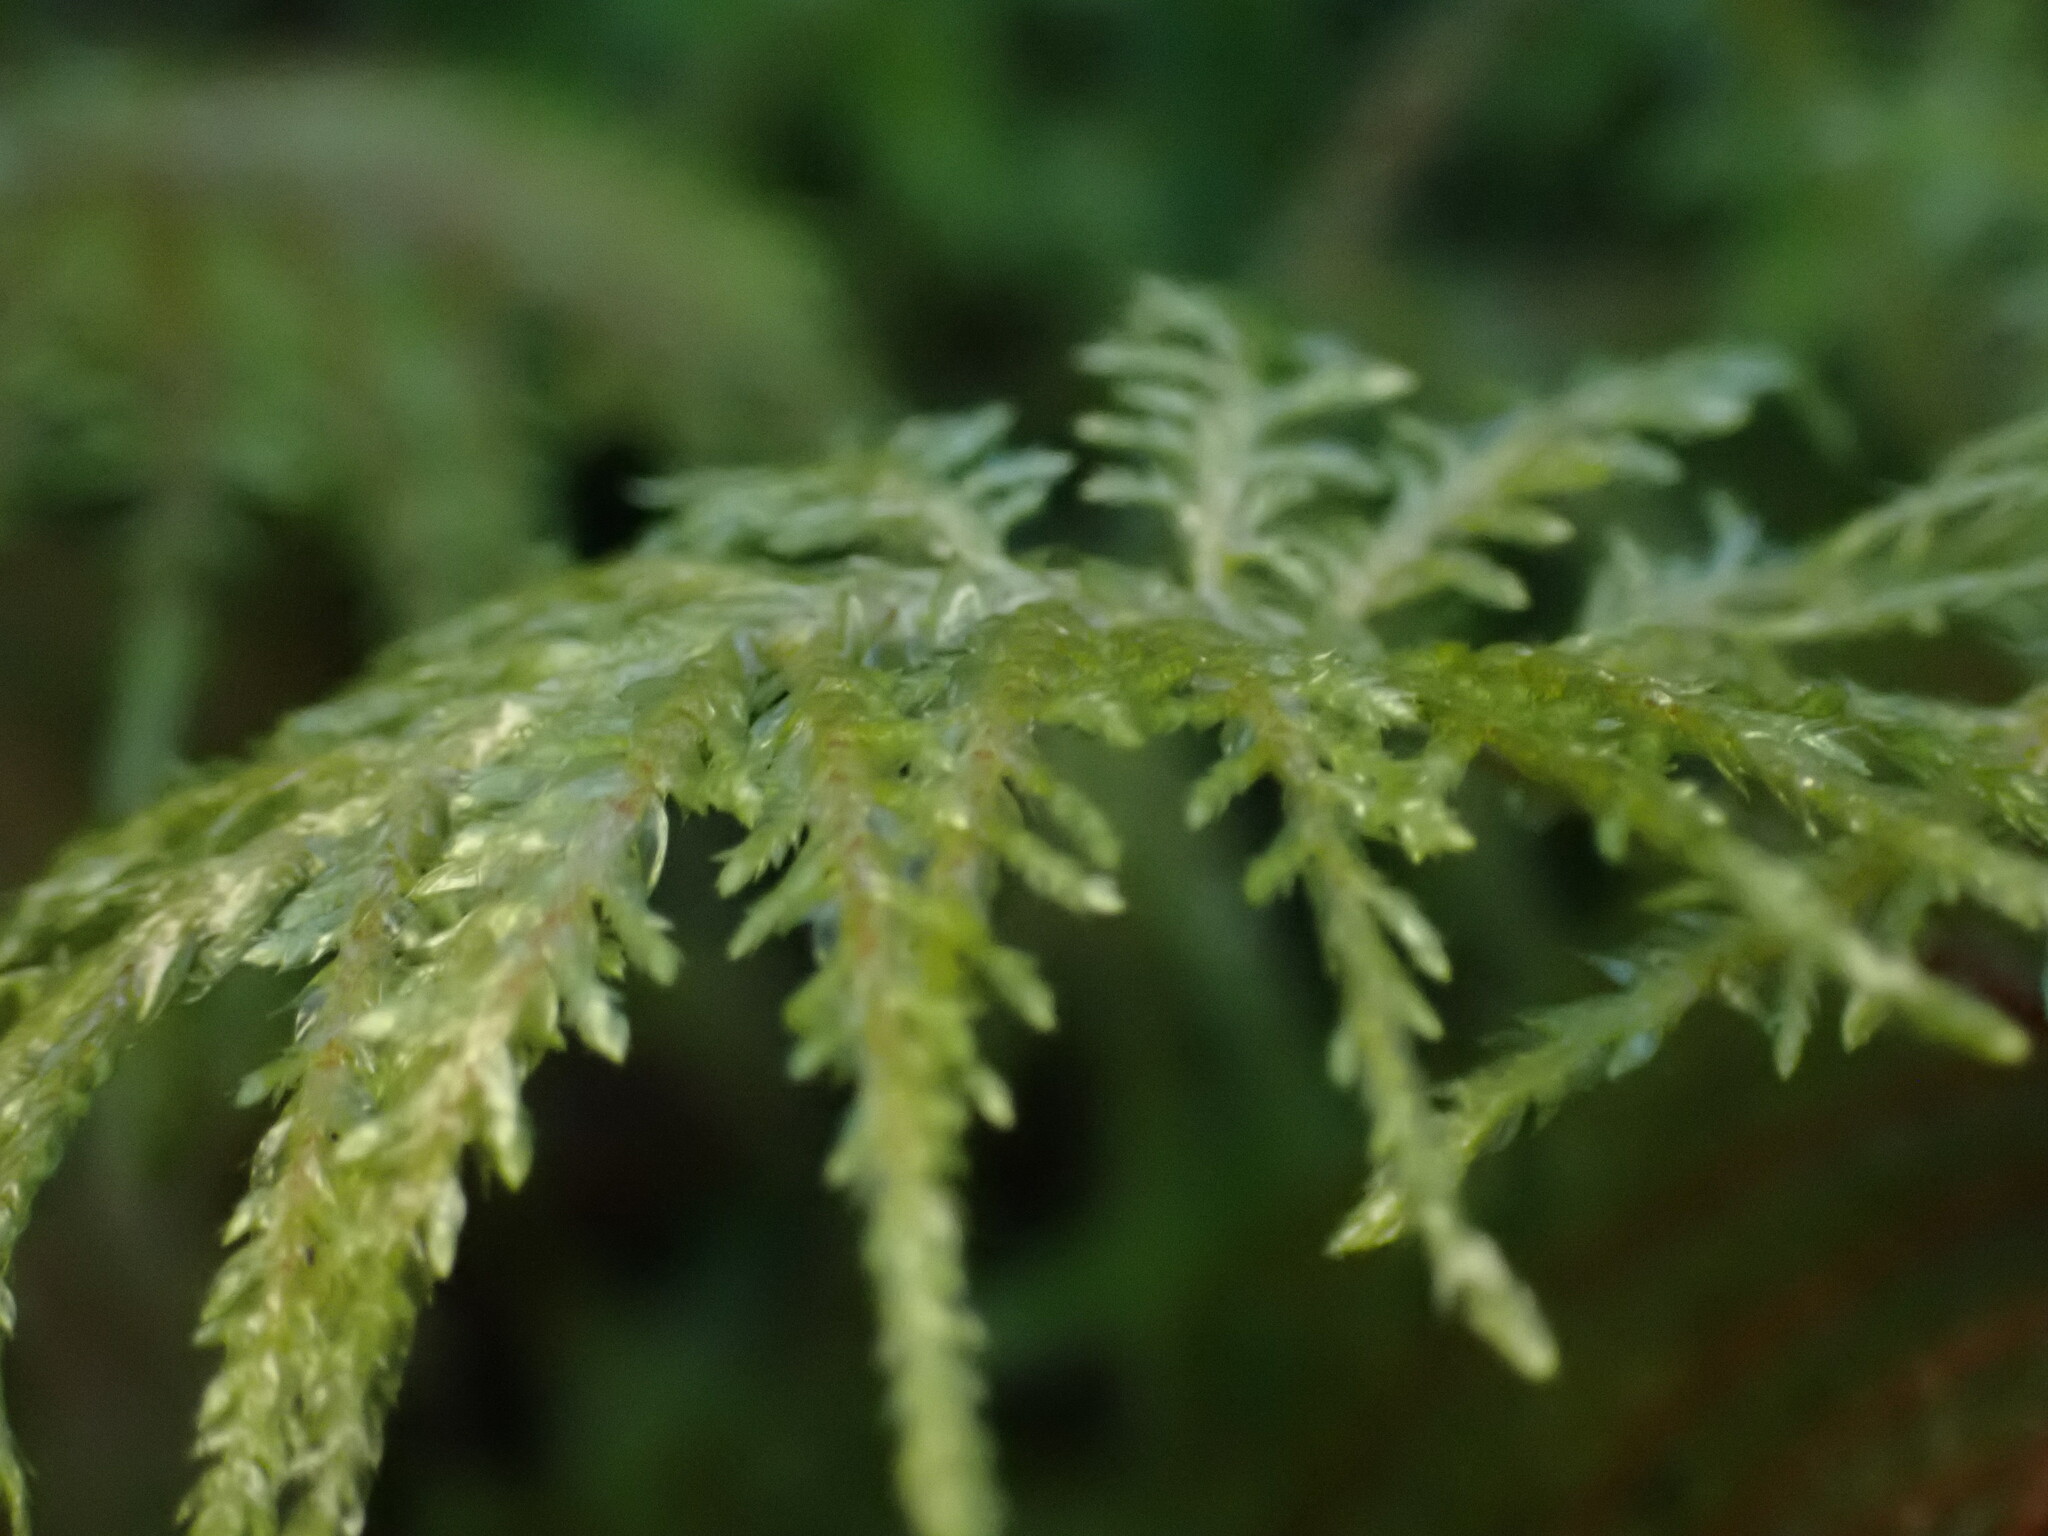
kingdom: Plantae
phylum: Bryophyta
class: Bryopsida
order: Hypnales
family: Hylocomiaceae
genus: Hylocomium
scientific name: Hylocomium splendens
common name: Stairstep moss
